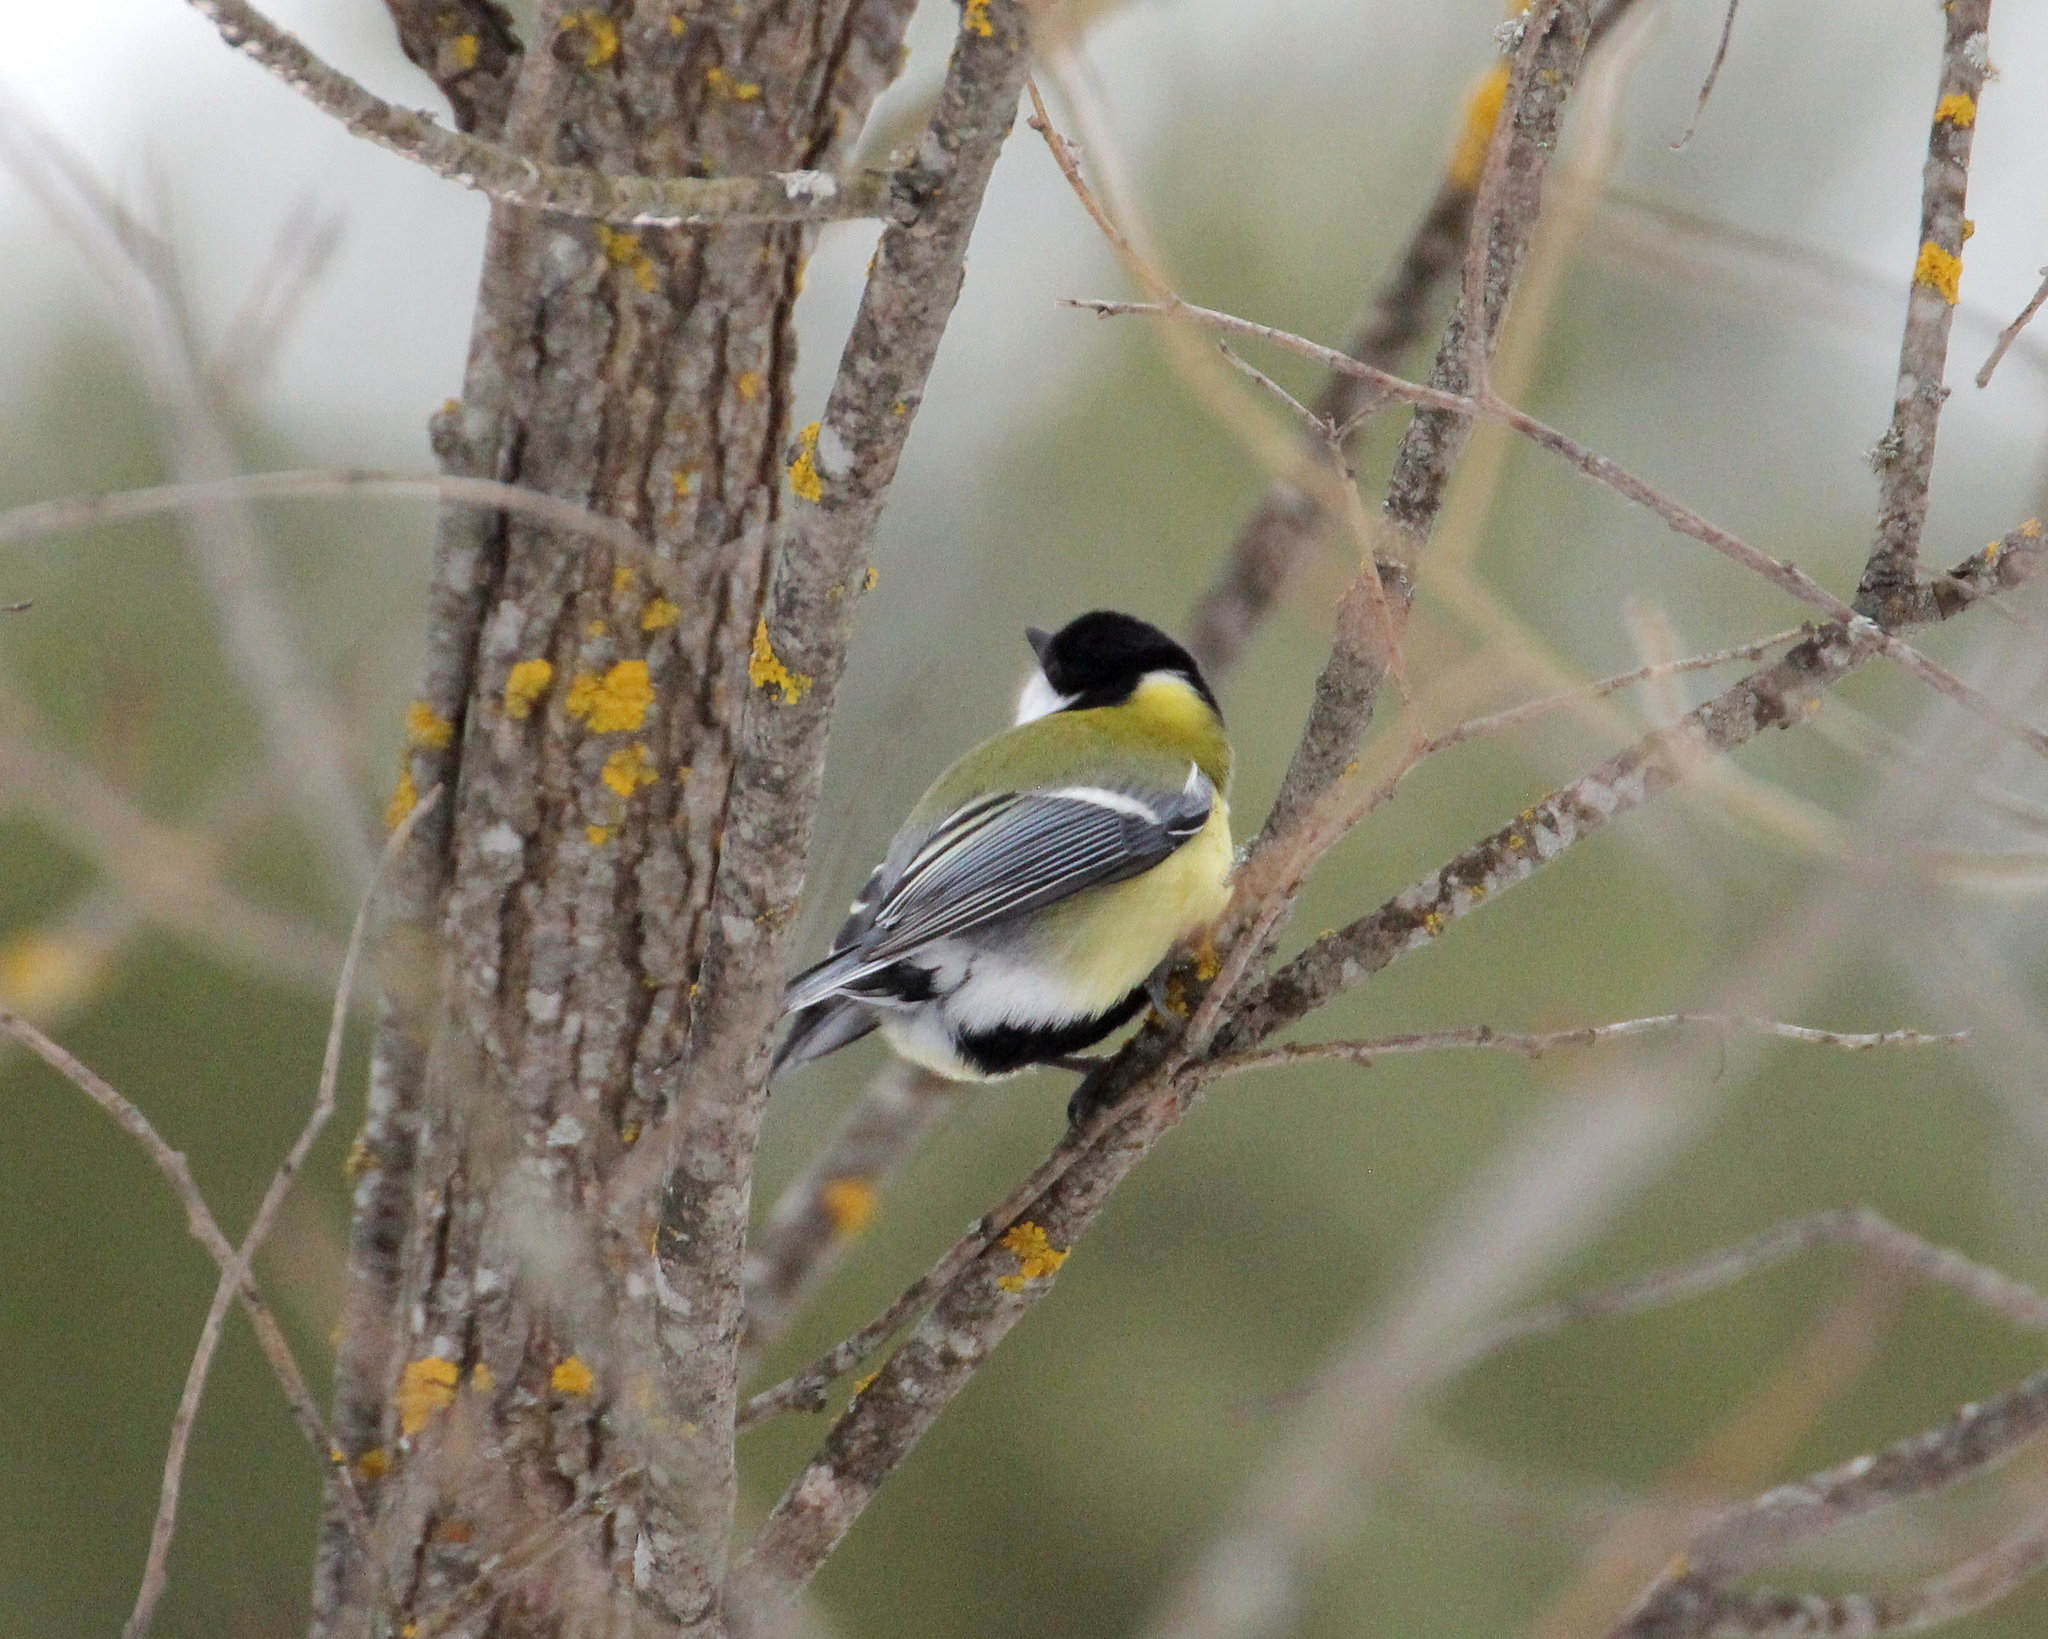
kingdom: Animalia
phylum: Chordata
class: Aves
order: Passeriformes
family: Paridae
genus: Parus
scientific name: Parus major
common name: Great tit
